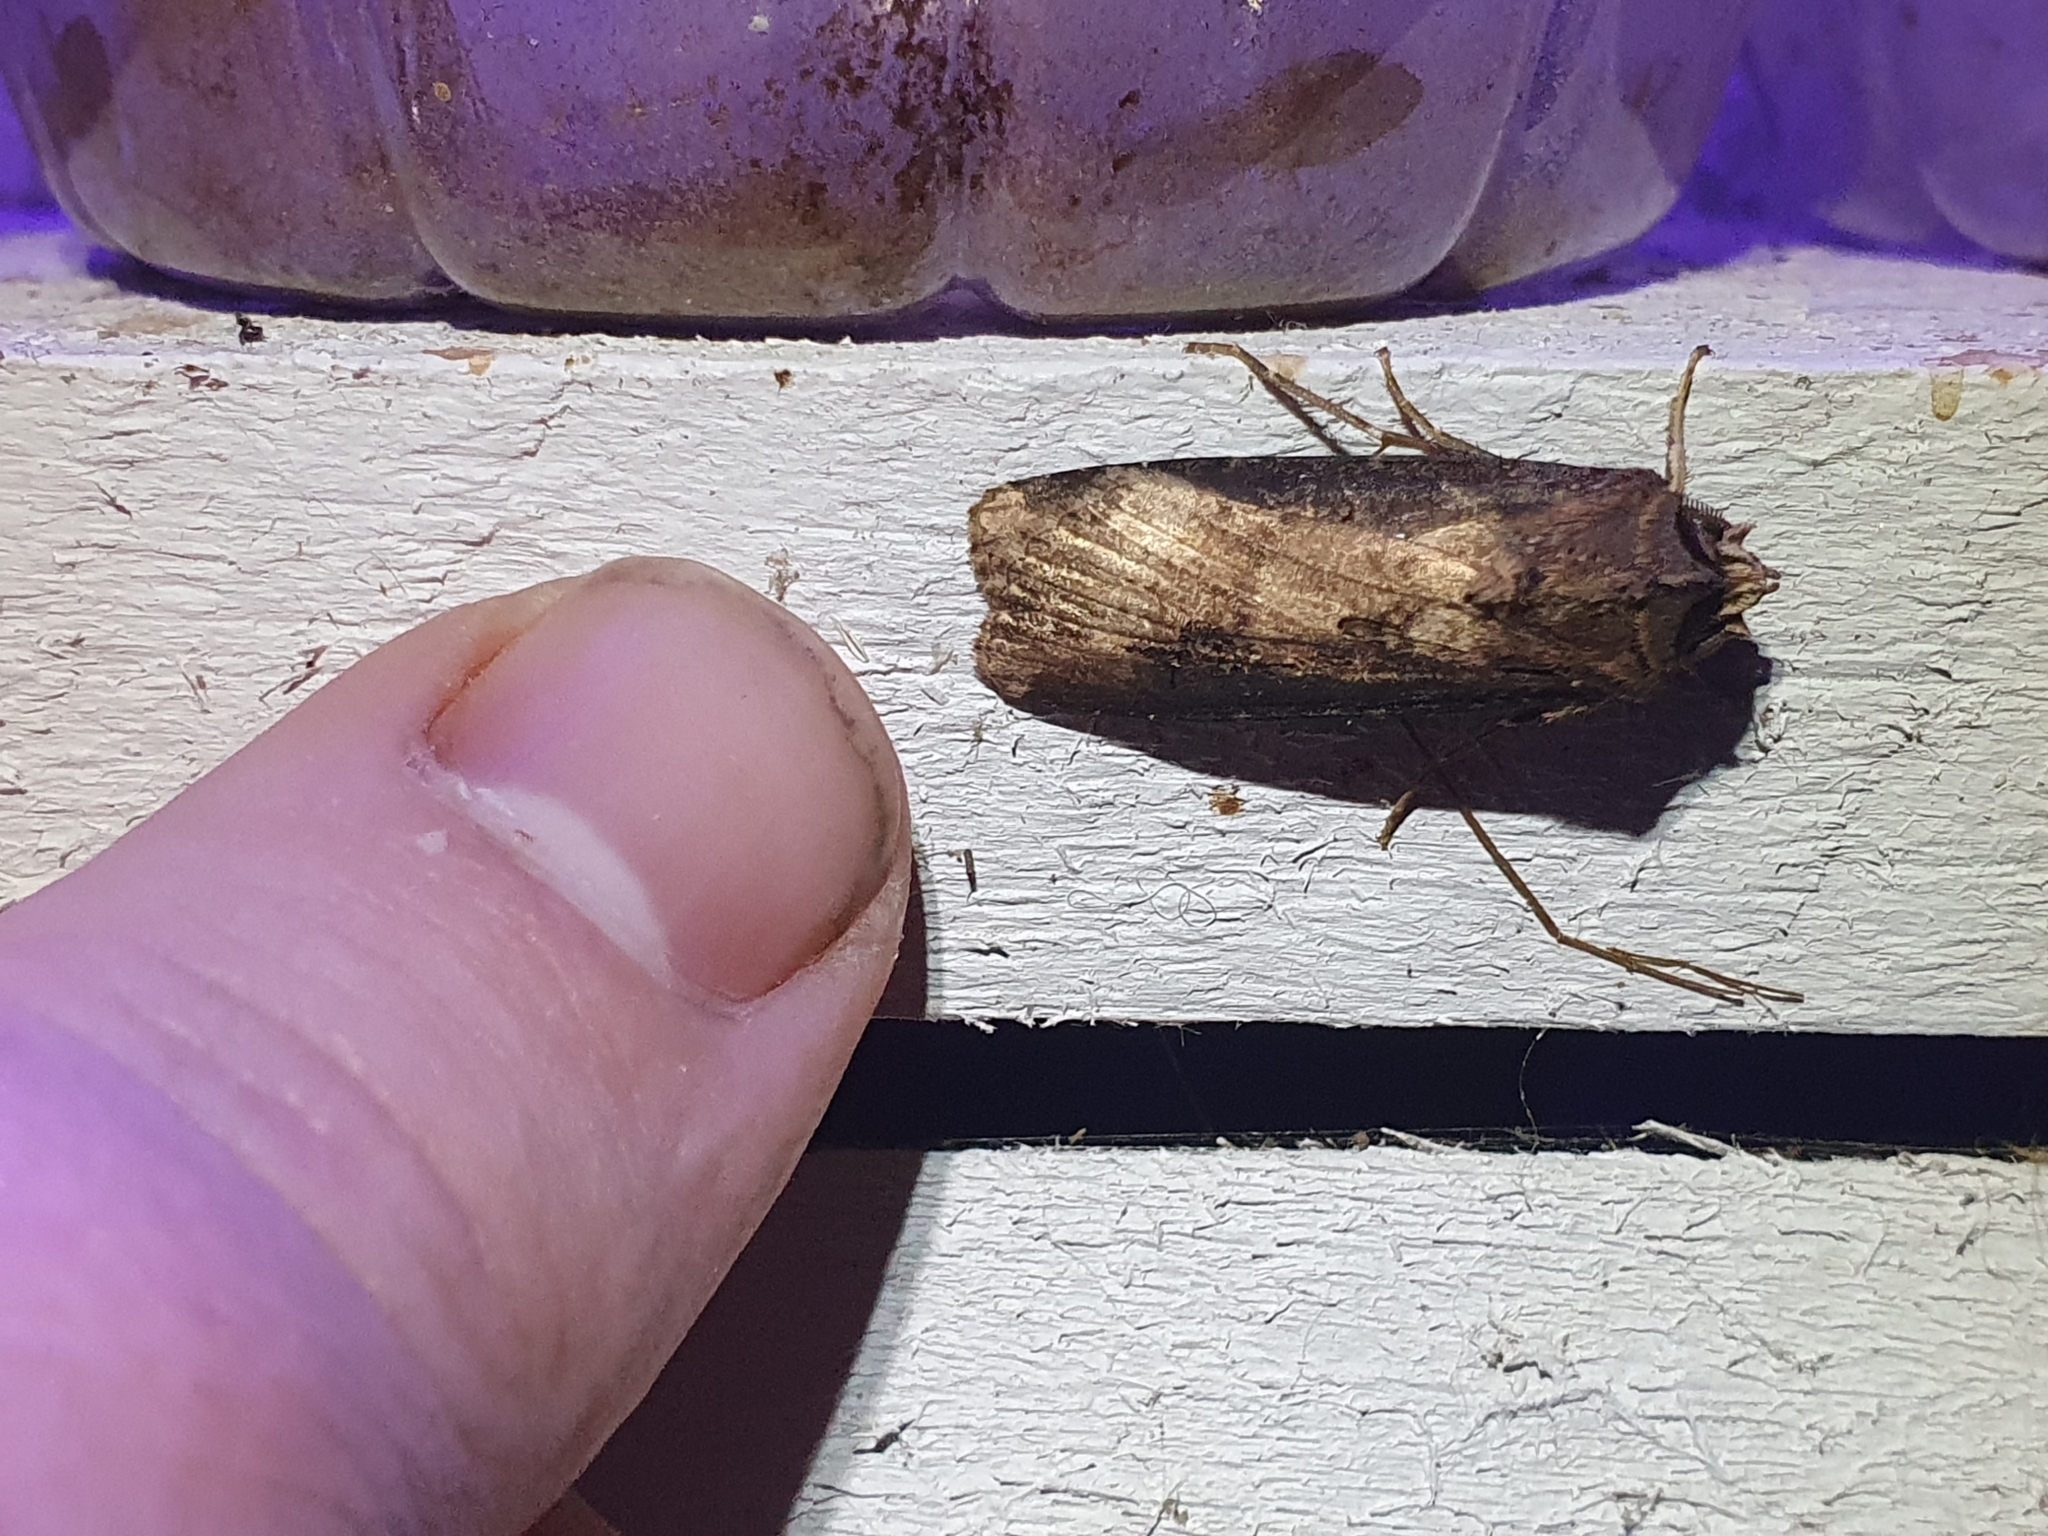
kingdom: Animalia
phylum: Arthropoda
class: Insecta
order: Lepidoptera
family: Noctuidae
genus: Agrotis
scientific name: Agrotis ipsilon
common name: Dark sword-grass
